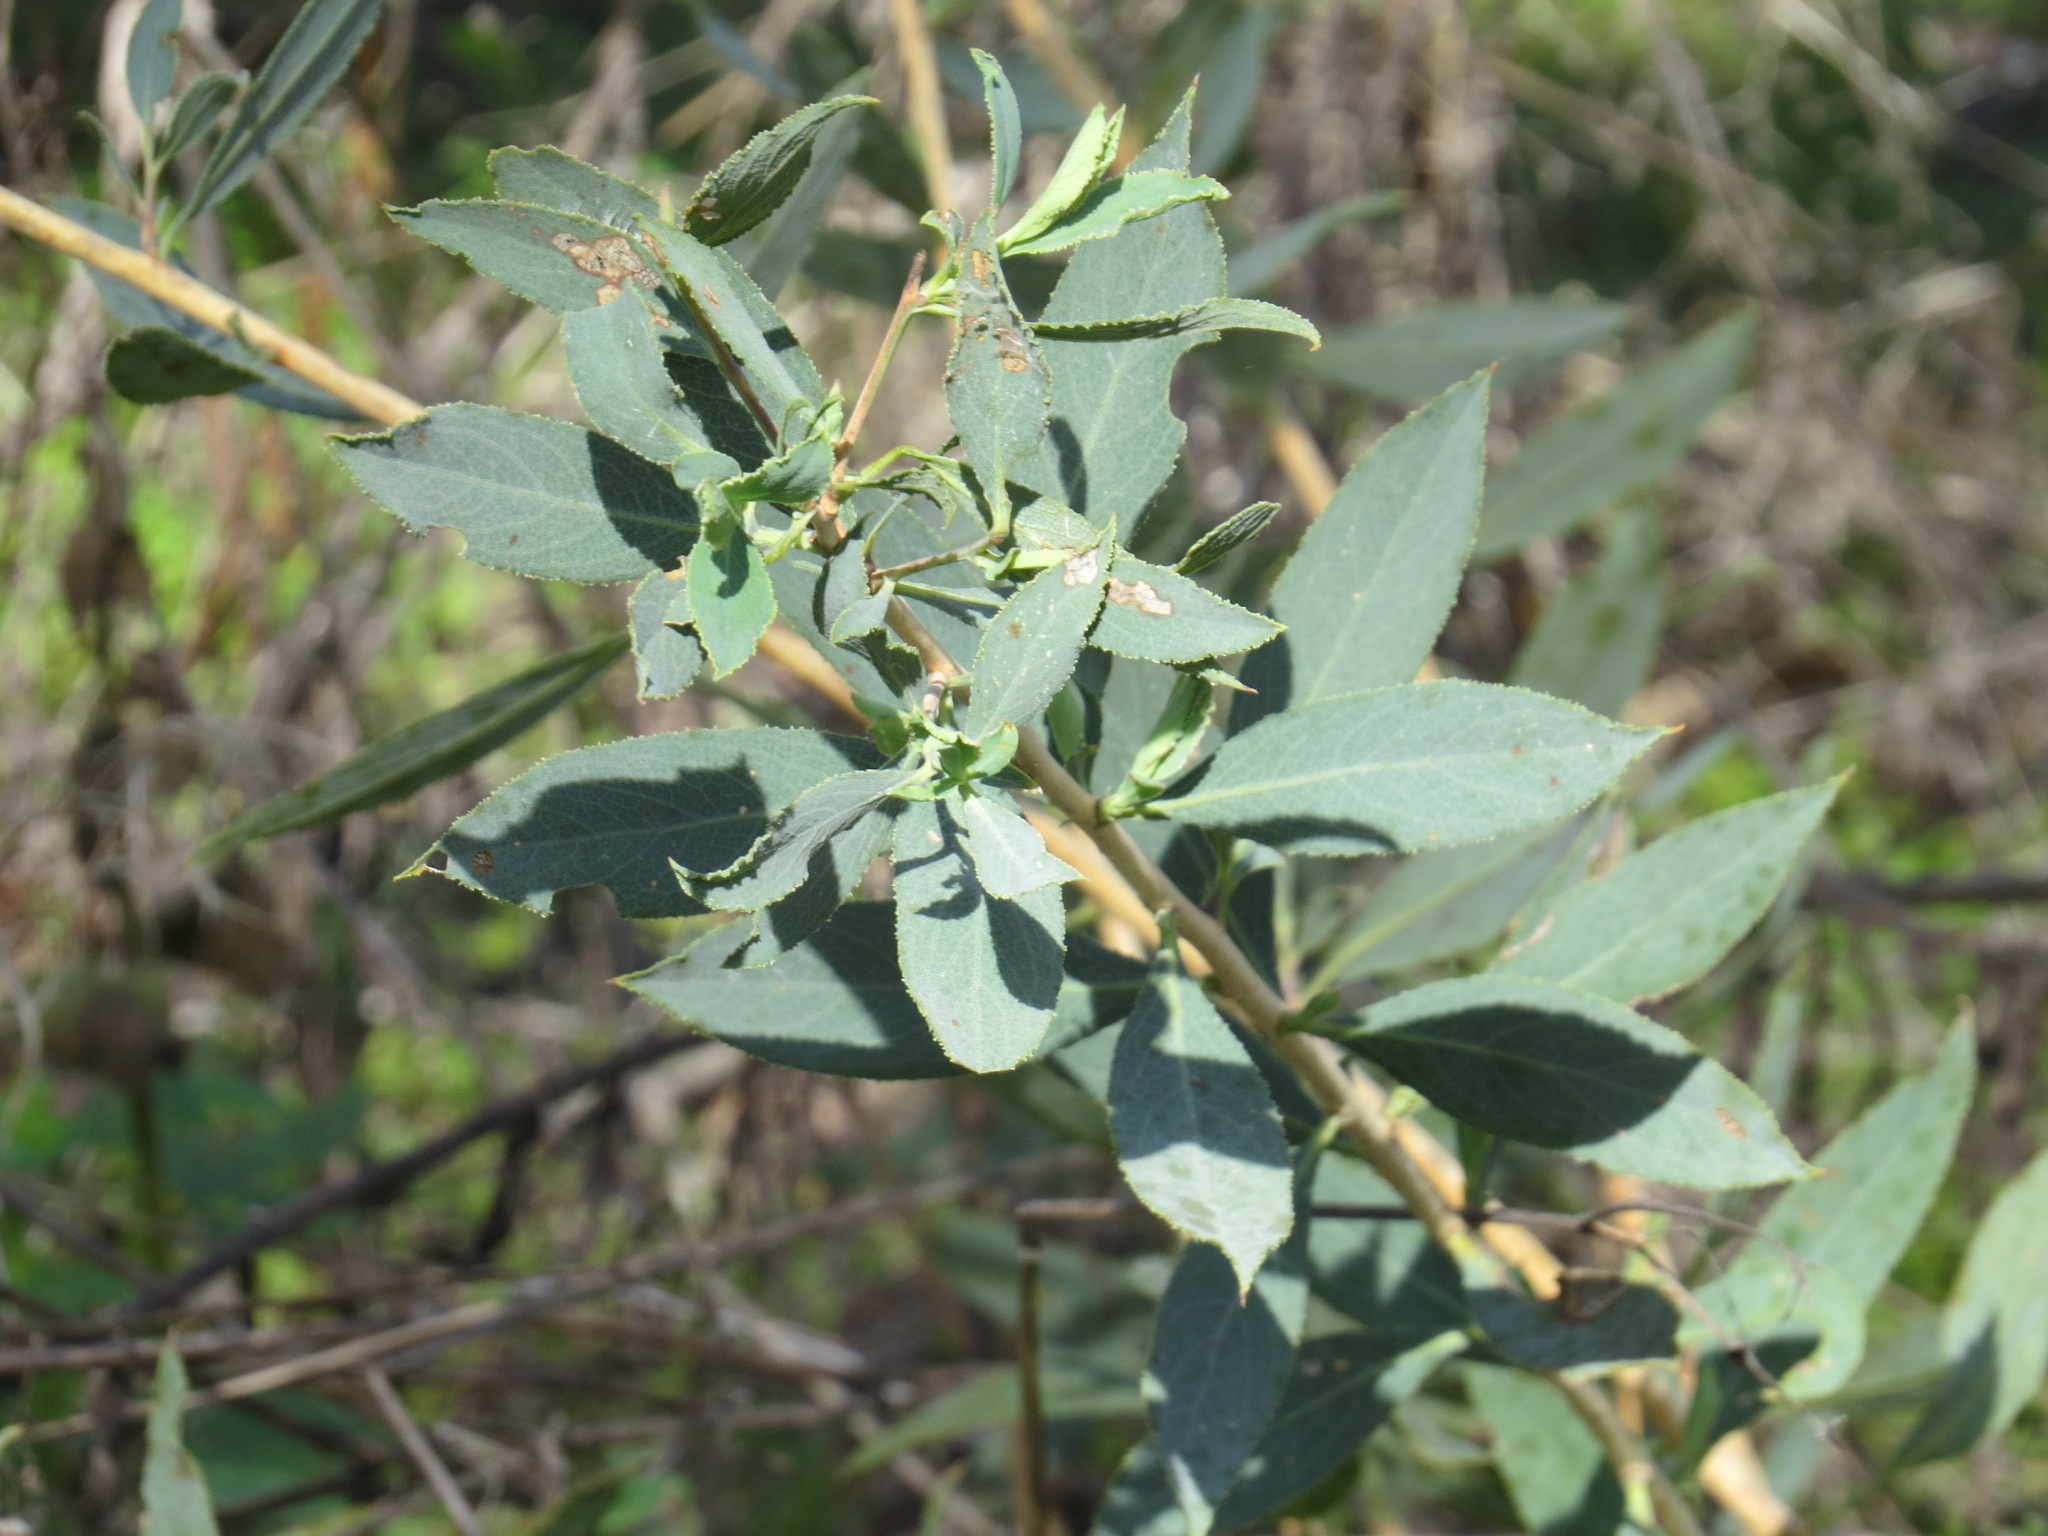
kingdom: Plantae
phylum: Tracheophyta
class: Magnoliopsida
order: Ranunculales
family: Papaveraceae
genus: Dendromecon
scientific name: Dendromecon rigida
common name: Tree poppy
